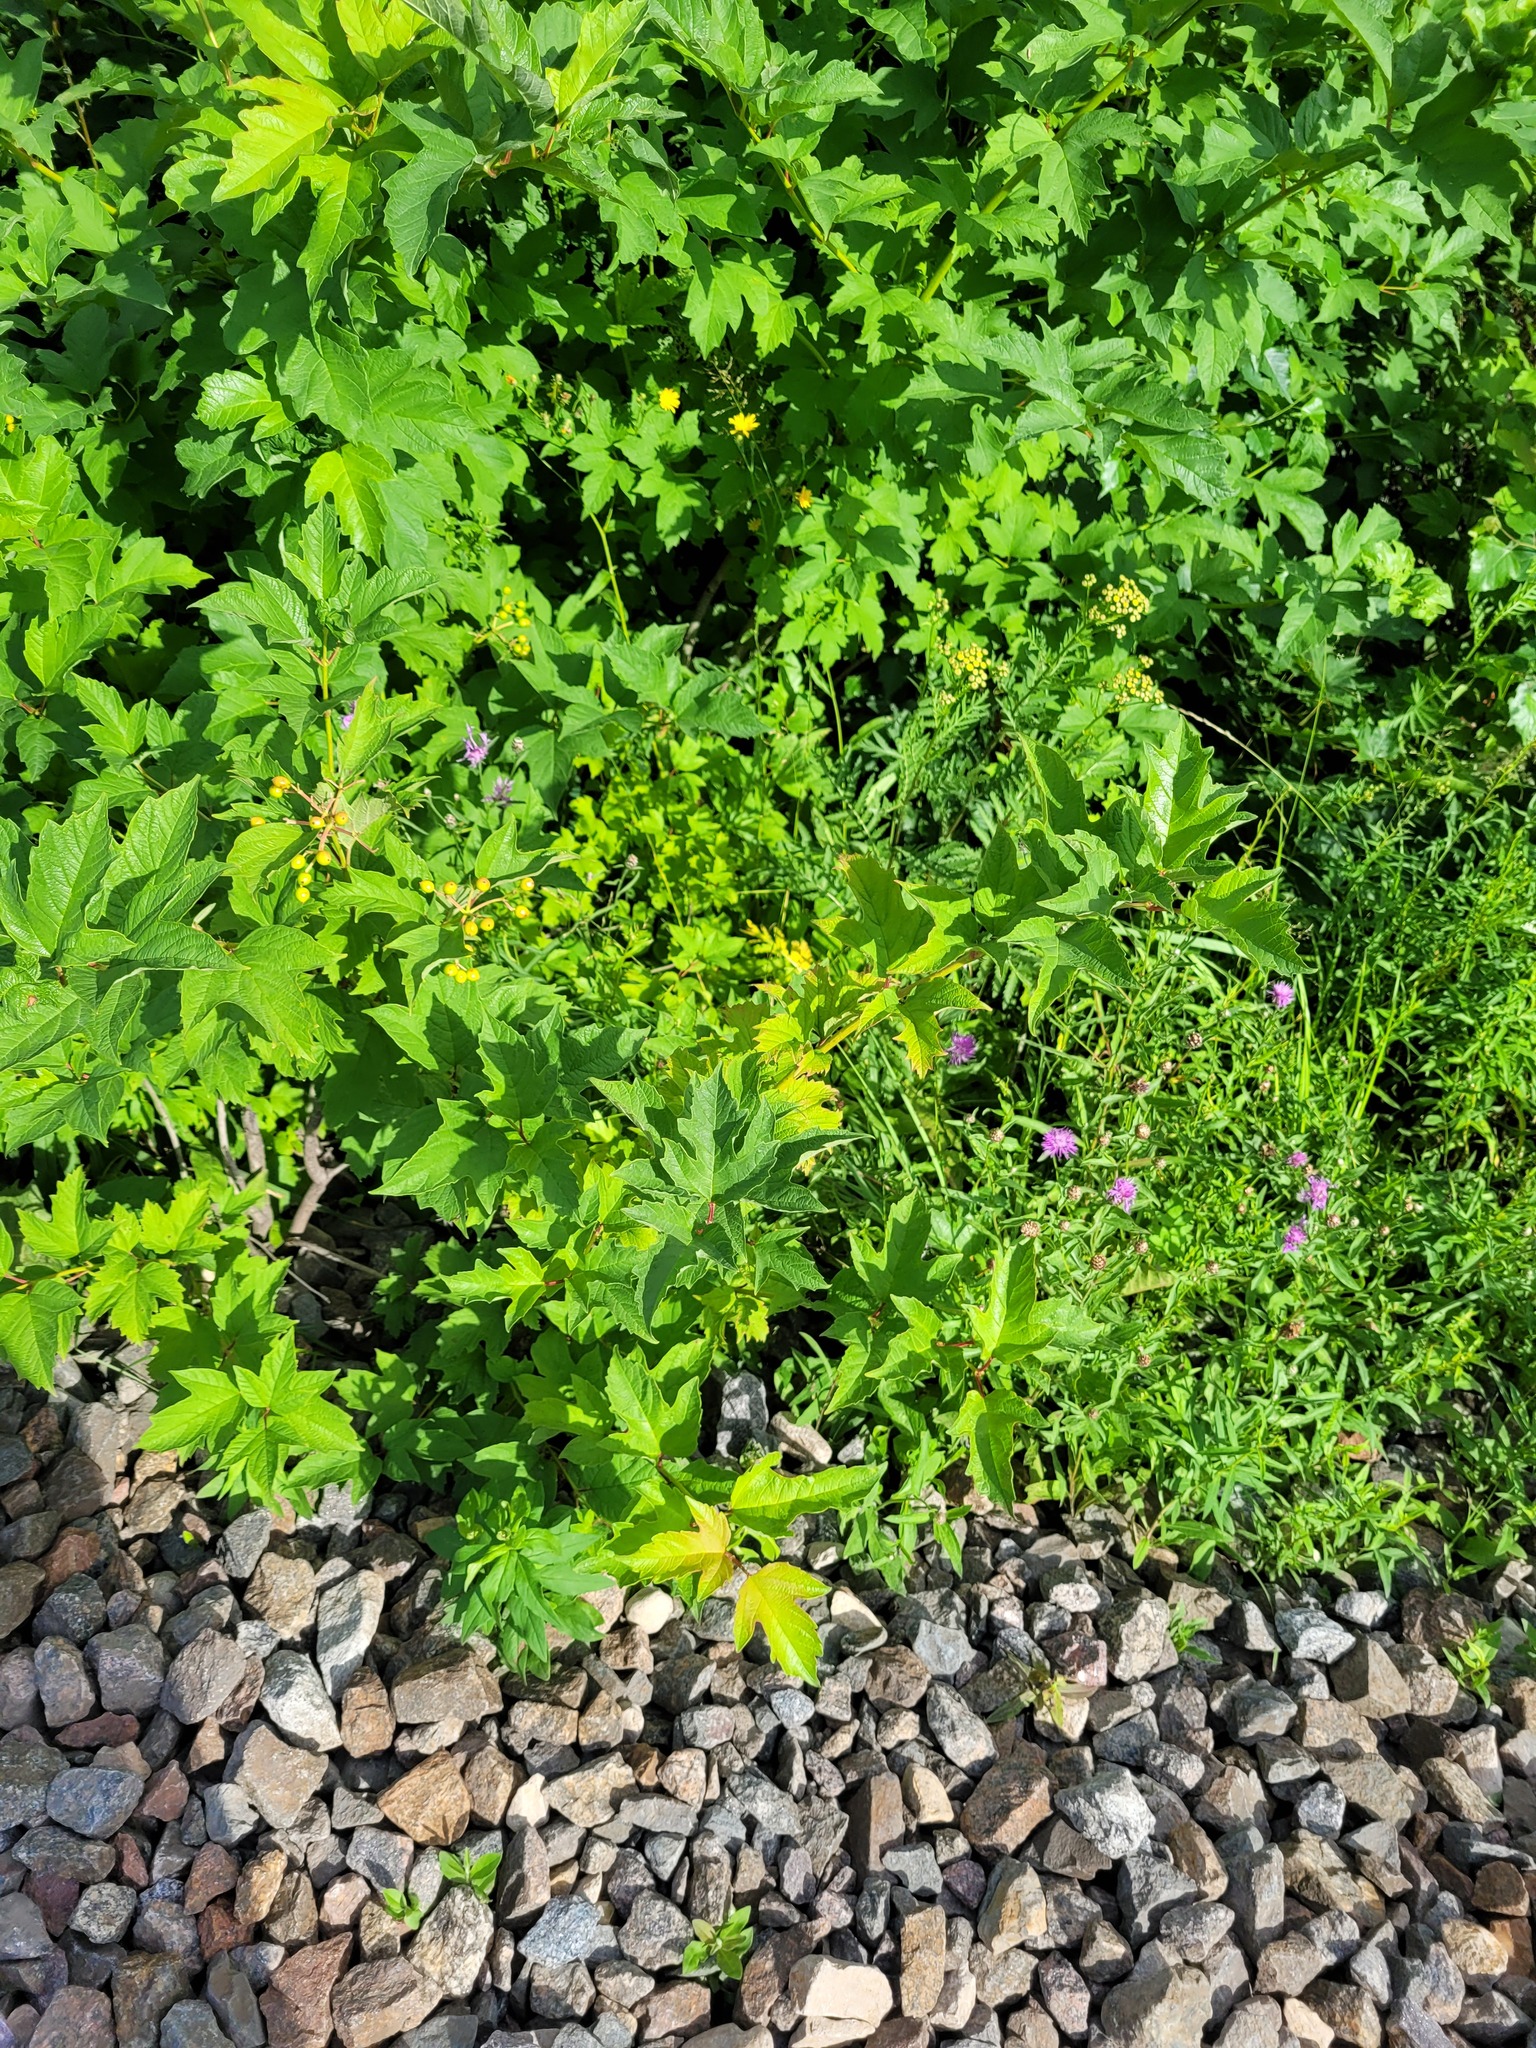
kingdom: Plantae
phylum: Tracheophyta
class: Magnoliopsida
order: Dipsacales
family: Viburnaceae
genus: Viburnum
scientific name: Viburnum opulus
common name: Guelder-rose
